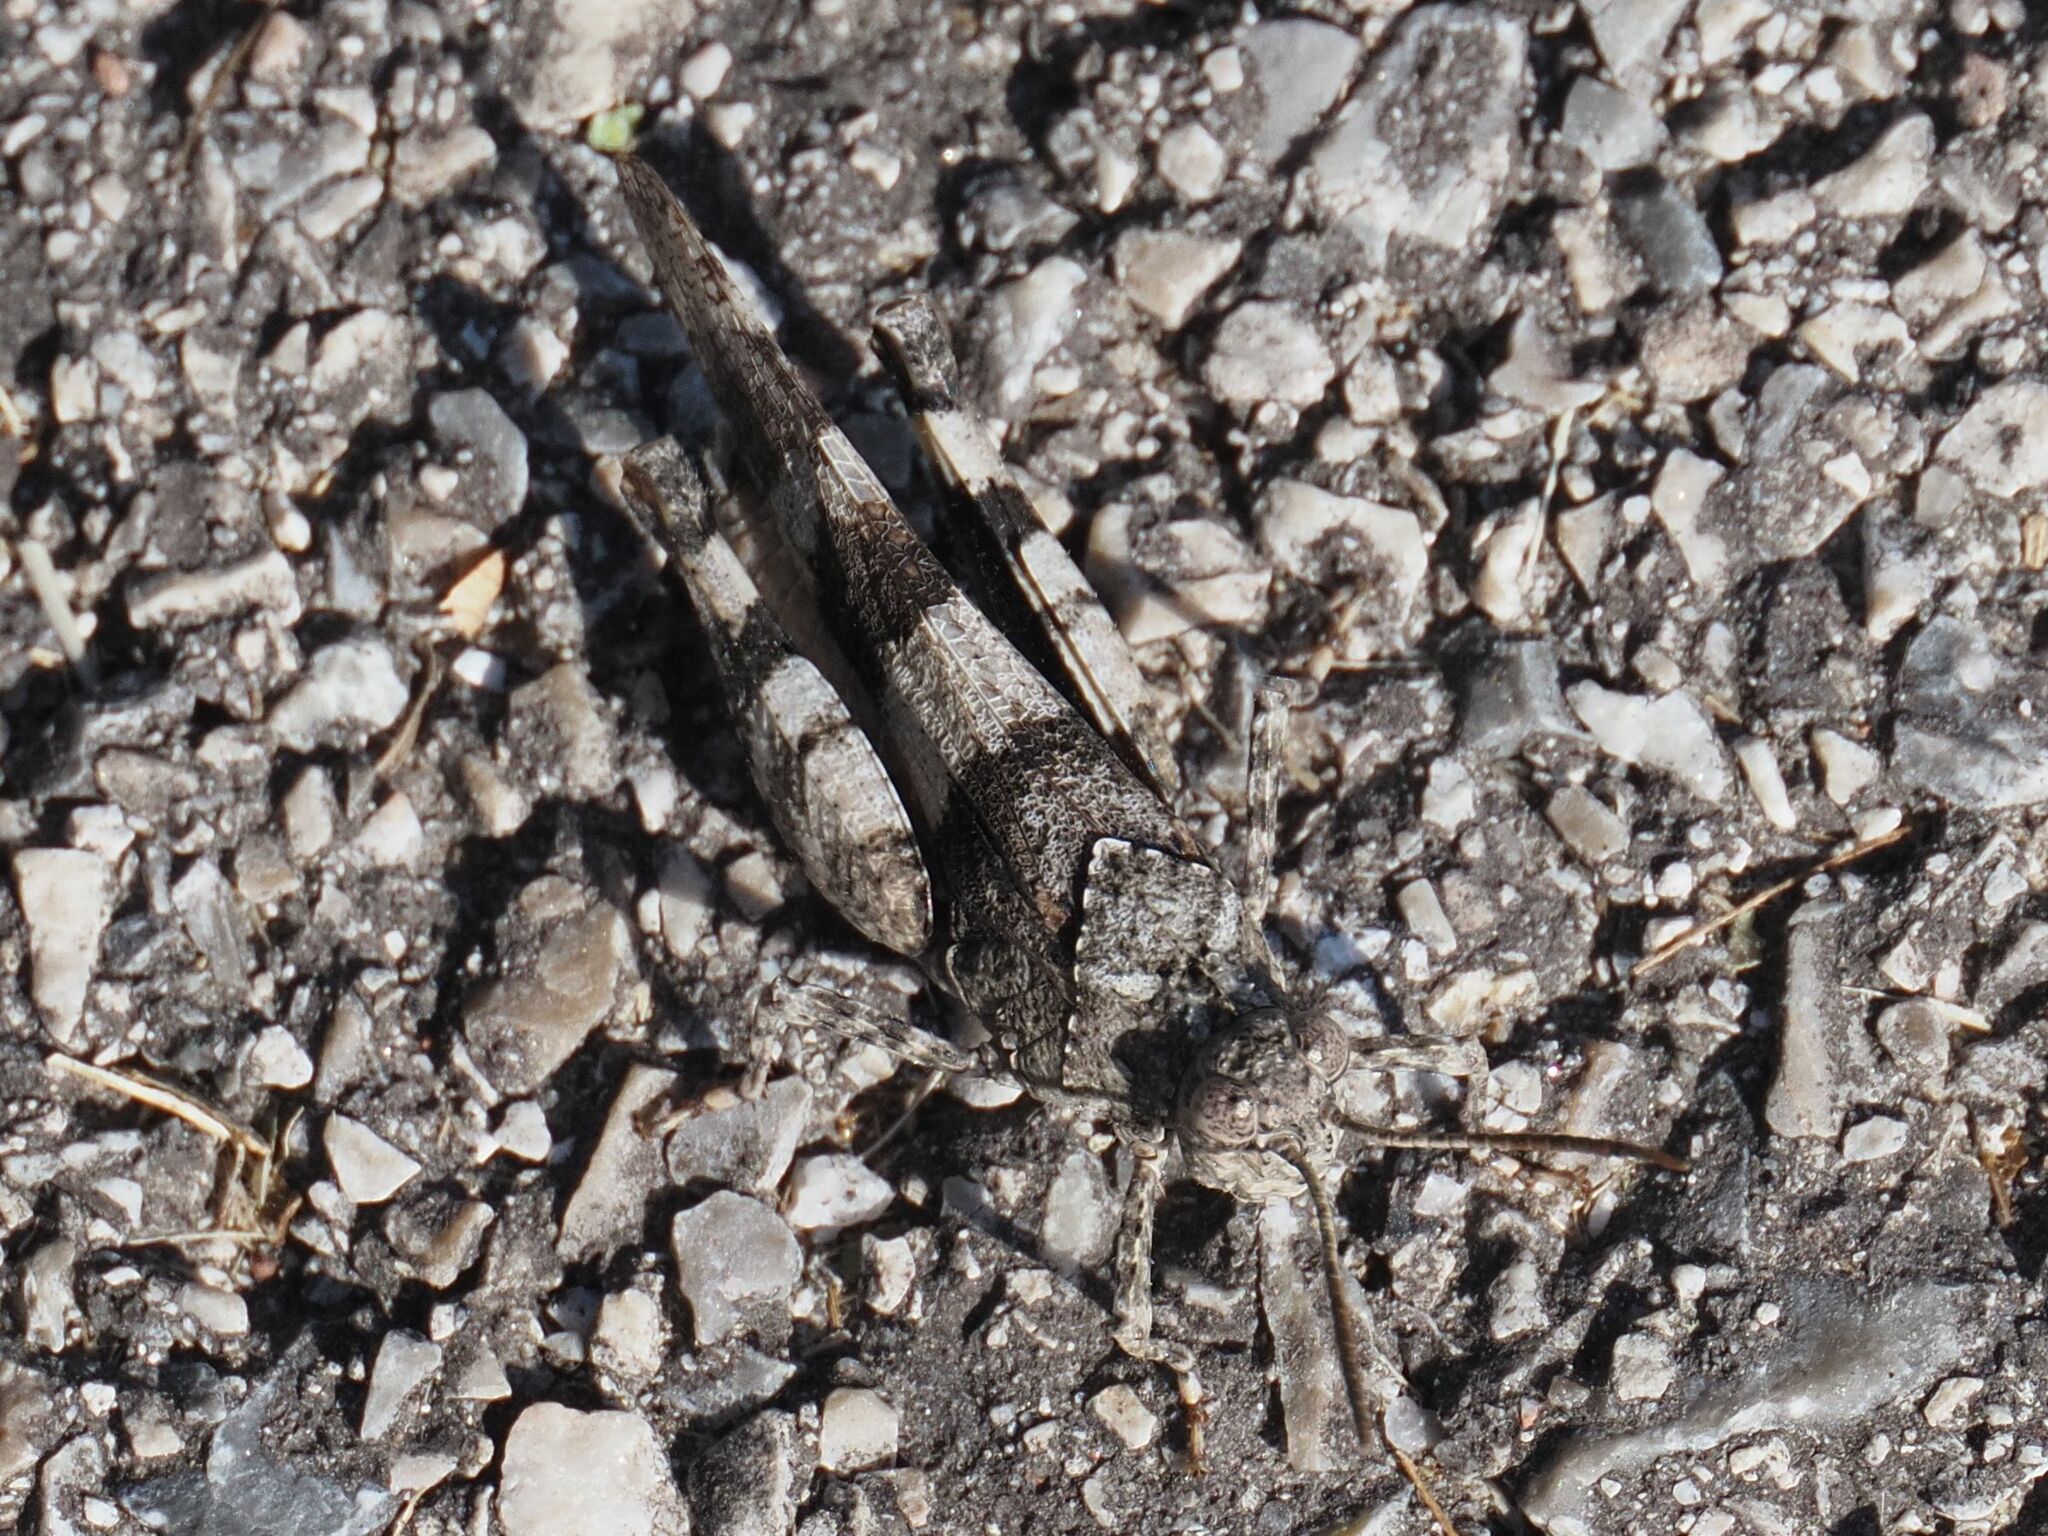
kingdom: Animalia
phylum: Arthropoda
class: Insecta
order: Orthoptera
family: Acrididae
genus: Oedipoda
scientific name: Oedipoda caerulescens
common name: Blue-winged grasshopper
